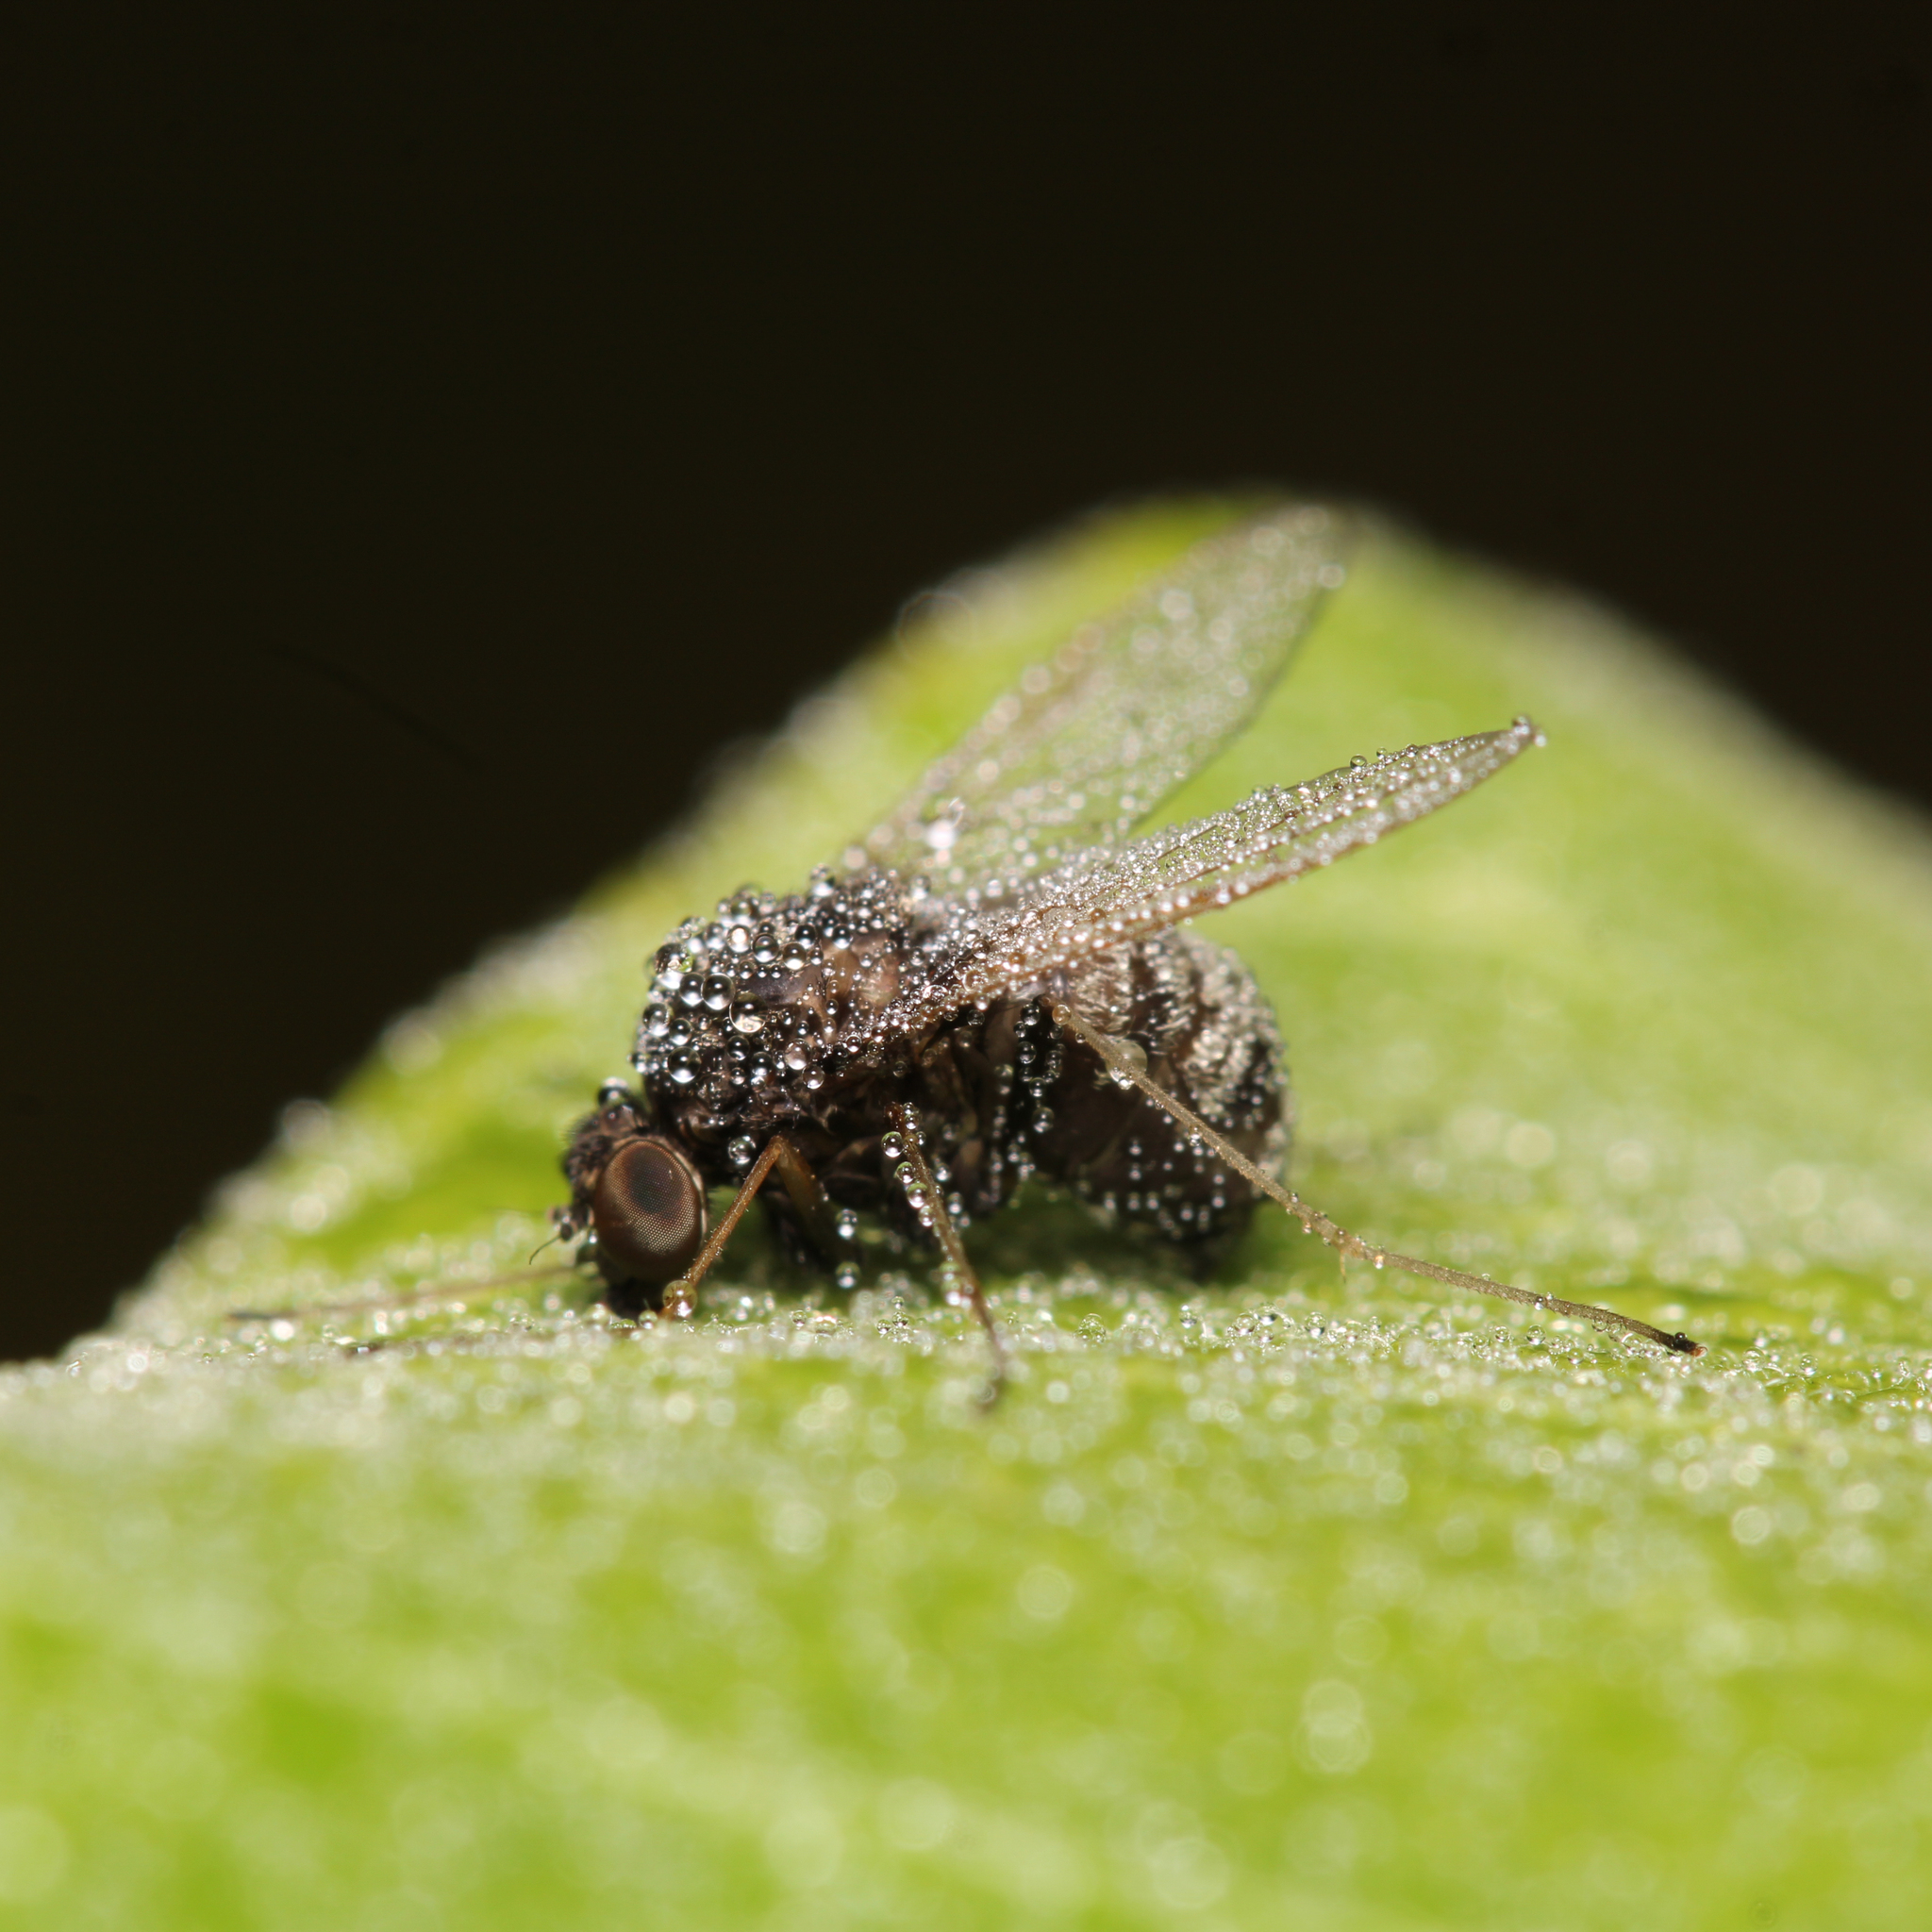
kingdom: Animalia
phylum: Arthropoda
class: Insecta
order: Diptera
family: Rhagionidae
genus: Chrysopilus
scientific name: Chrysopilus basilaris
